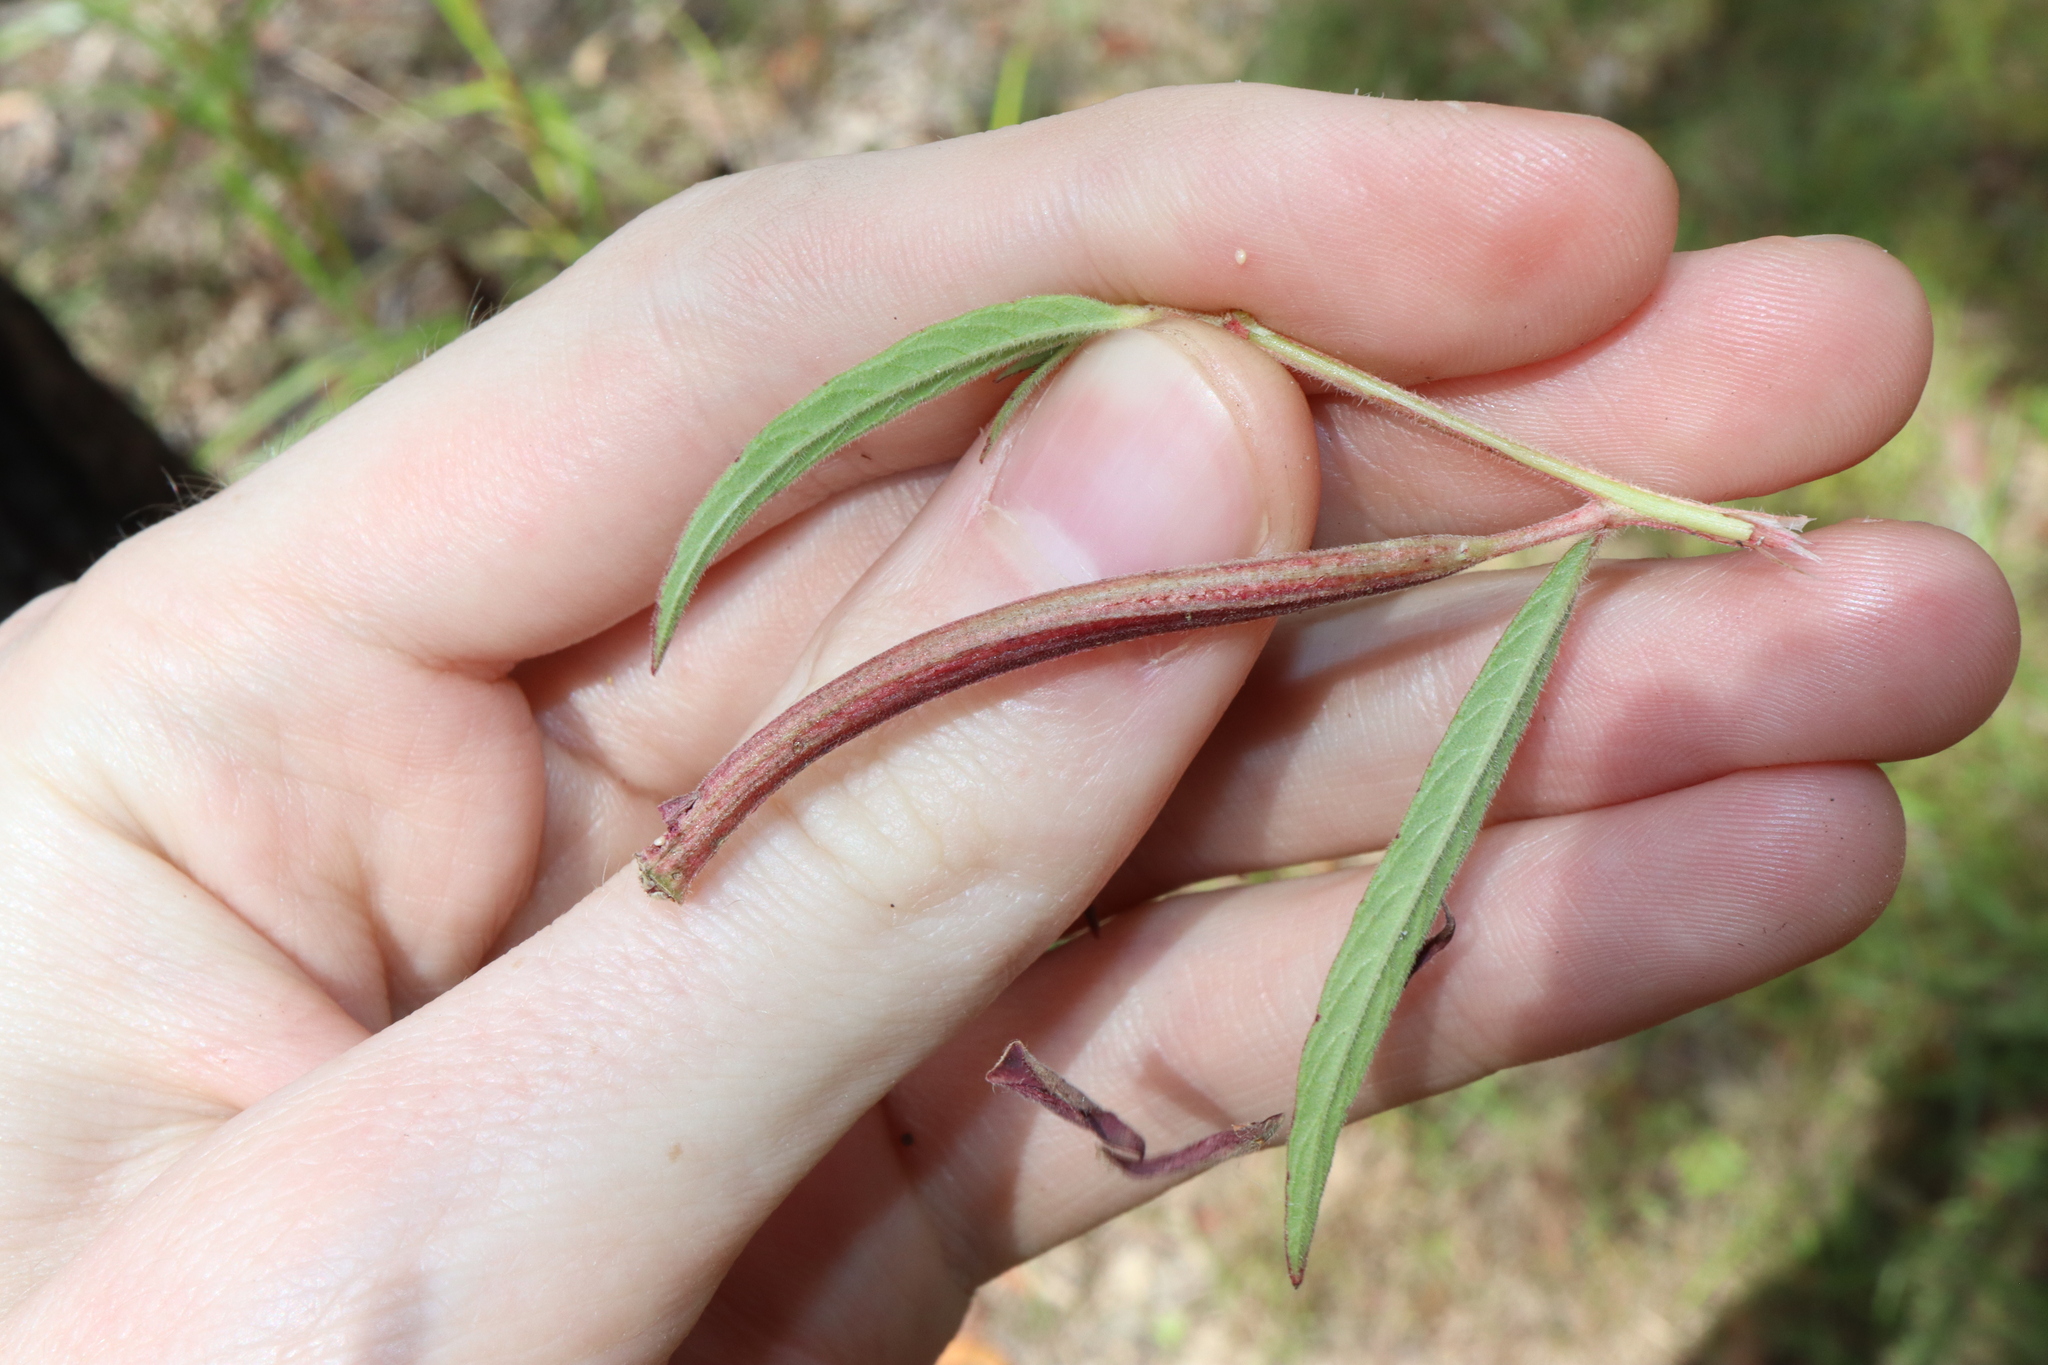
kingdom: Plantae
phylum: Tracheophyta
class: Magnoliopsida
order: Myrtales
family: Onagraceae
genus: Ludwigia
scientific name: Ludwigia octovalvis
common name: Water-primrose
